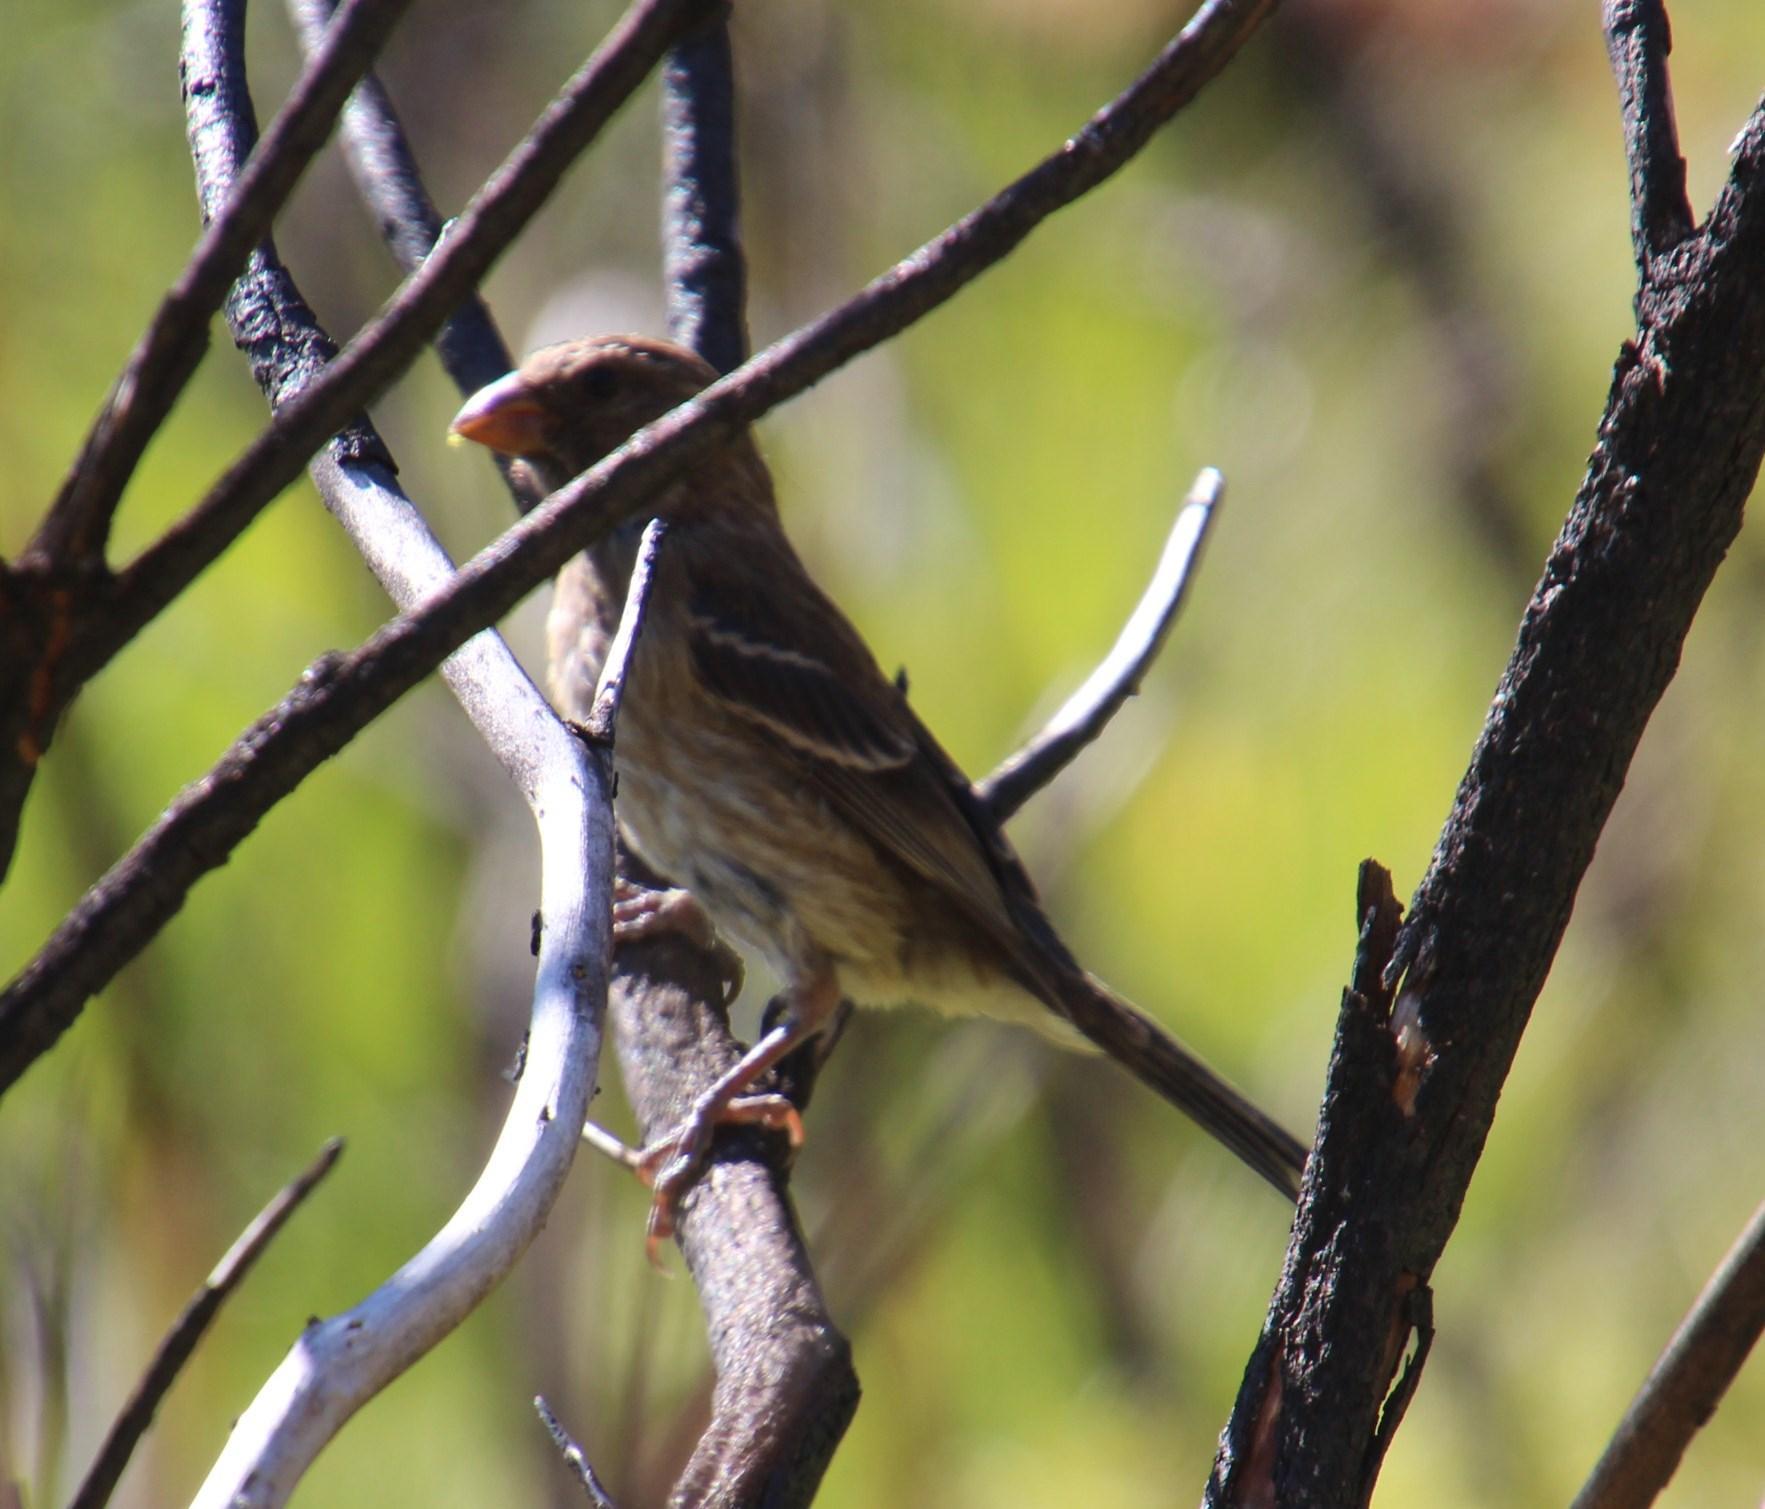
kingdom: Animalia
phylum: Chordata
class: Aves
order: Passeriformes
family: Fringillidae
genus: Crithagra
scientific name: Crithagra leucoptera
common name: Protea canary
